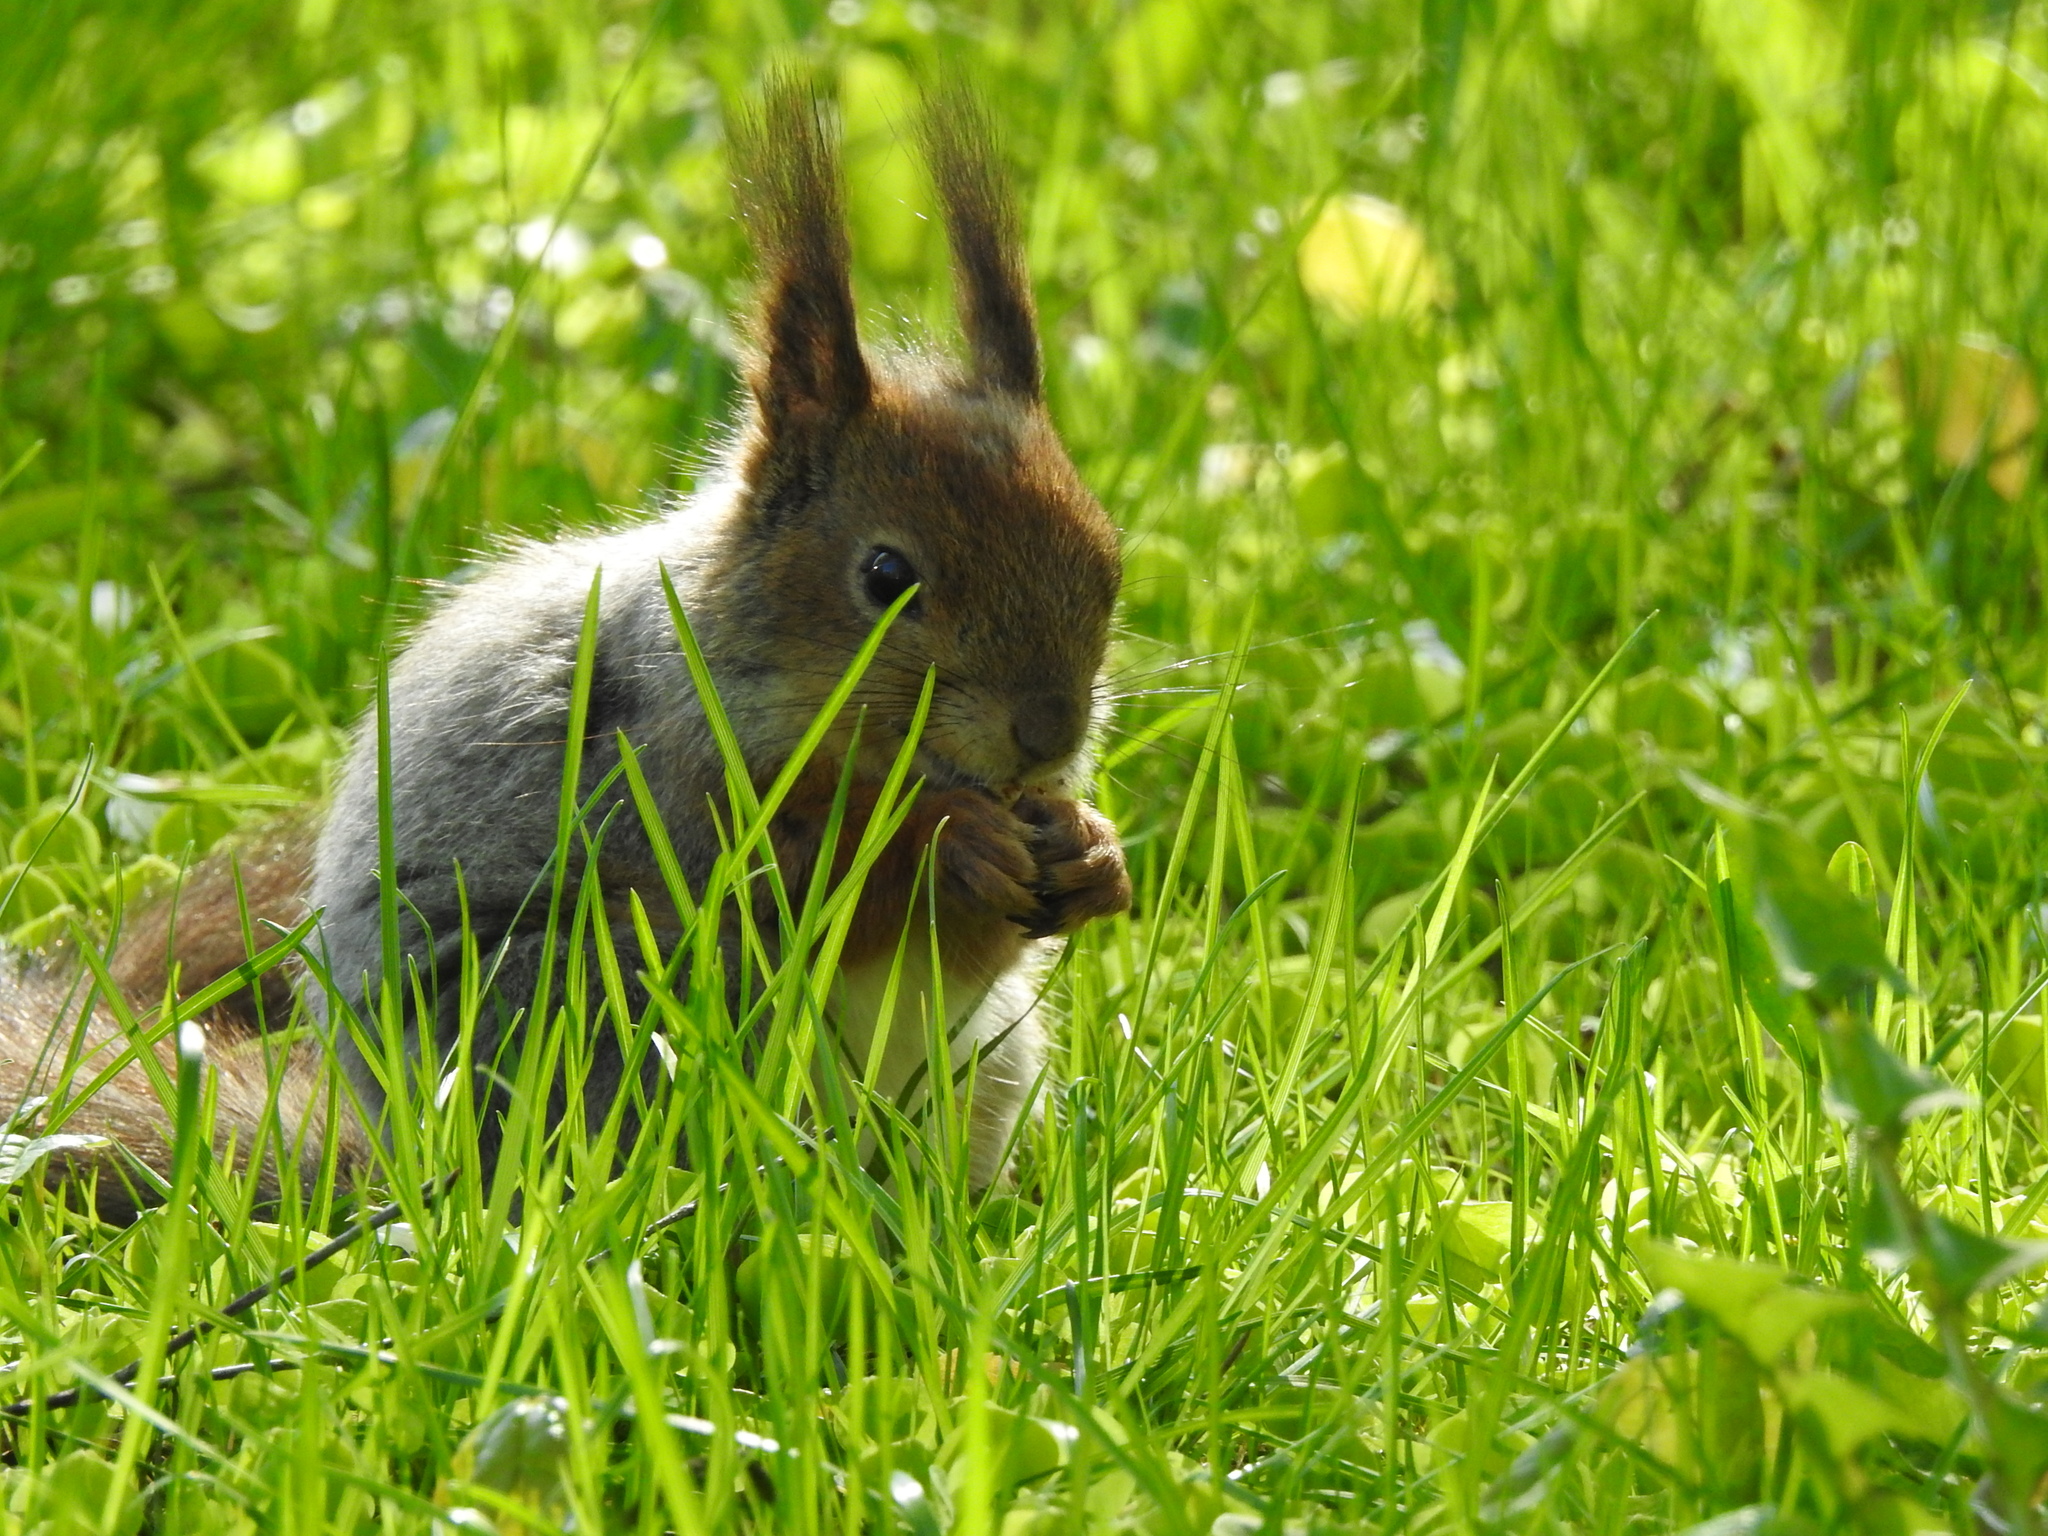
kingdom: Animalia
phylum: Chordata
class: Mammalia
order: Rodentia
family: Sciuridae
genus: Sciurus
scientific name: Sciurus vulgaris
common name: Eurasian red squirrel
